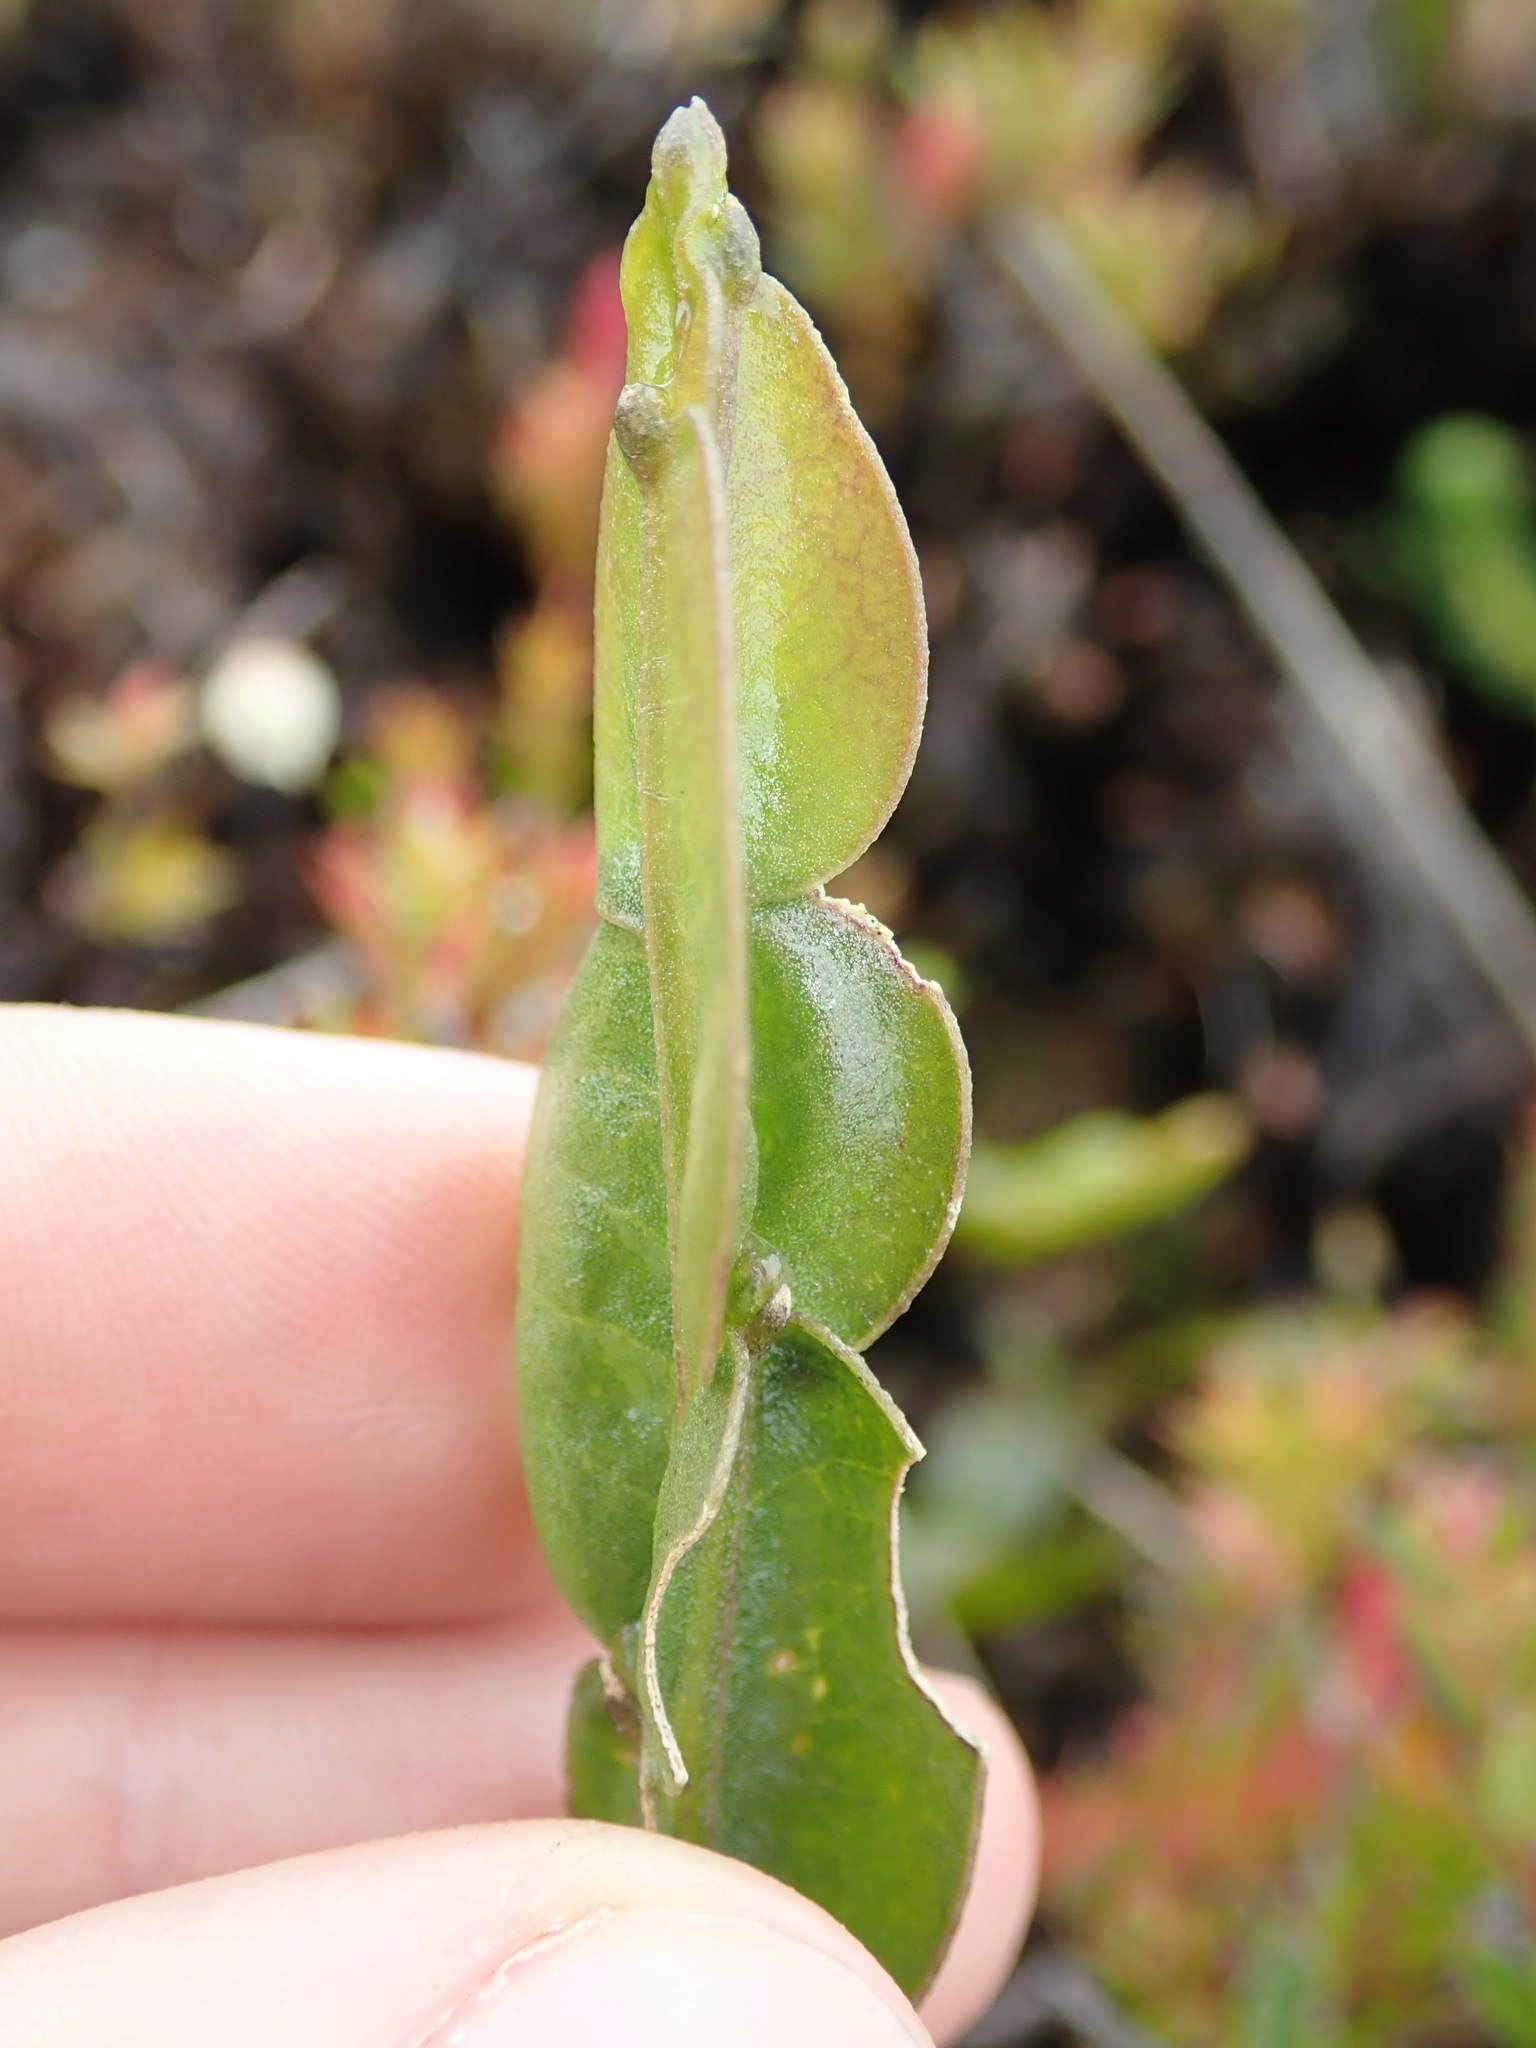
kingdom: Plantae
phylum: Tracheophyta
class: Magnoliopsida
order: Asterales
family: Asteraceae
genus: Baccharis
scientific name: Baccharis genistelloides
